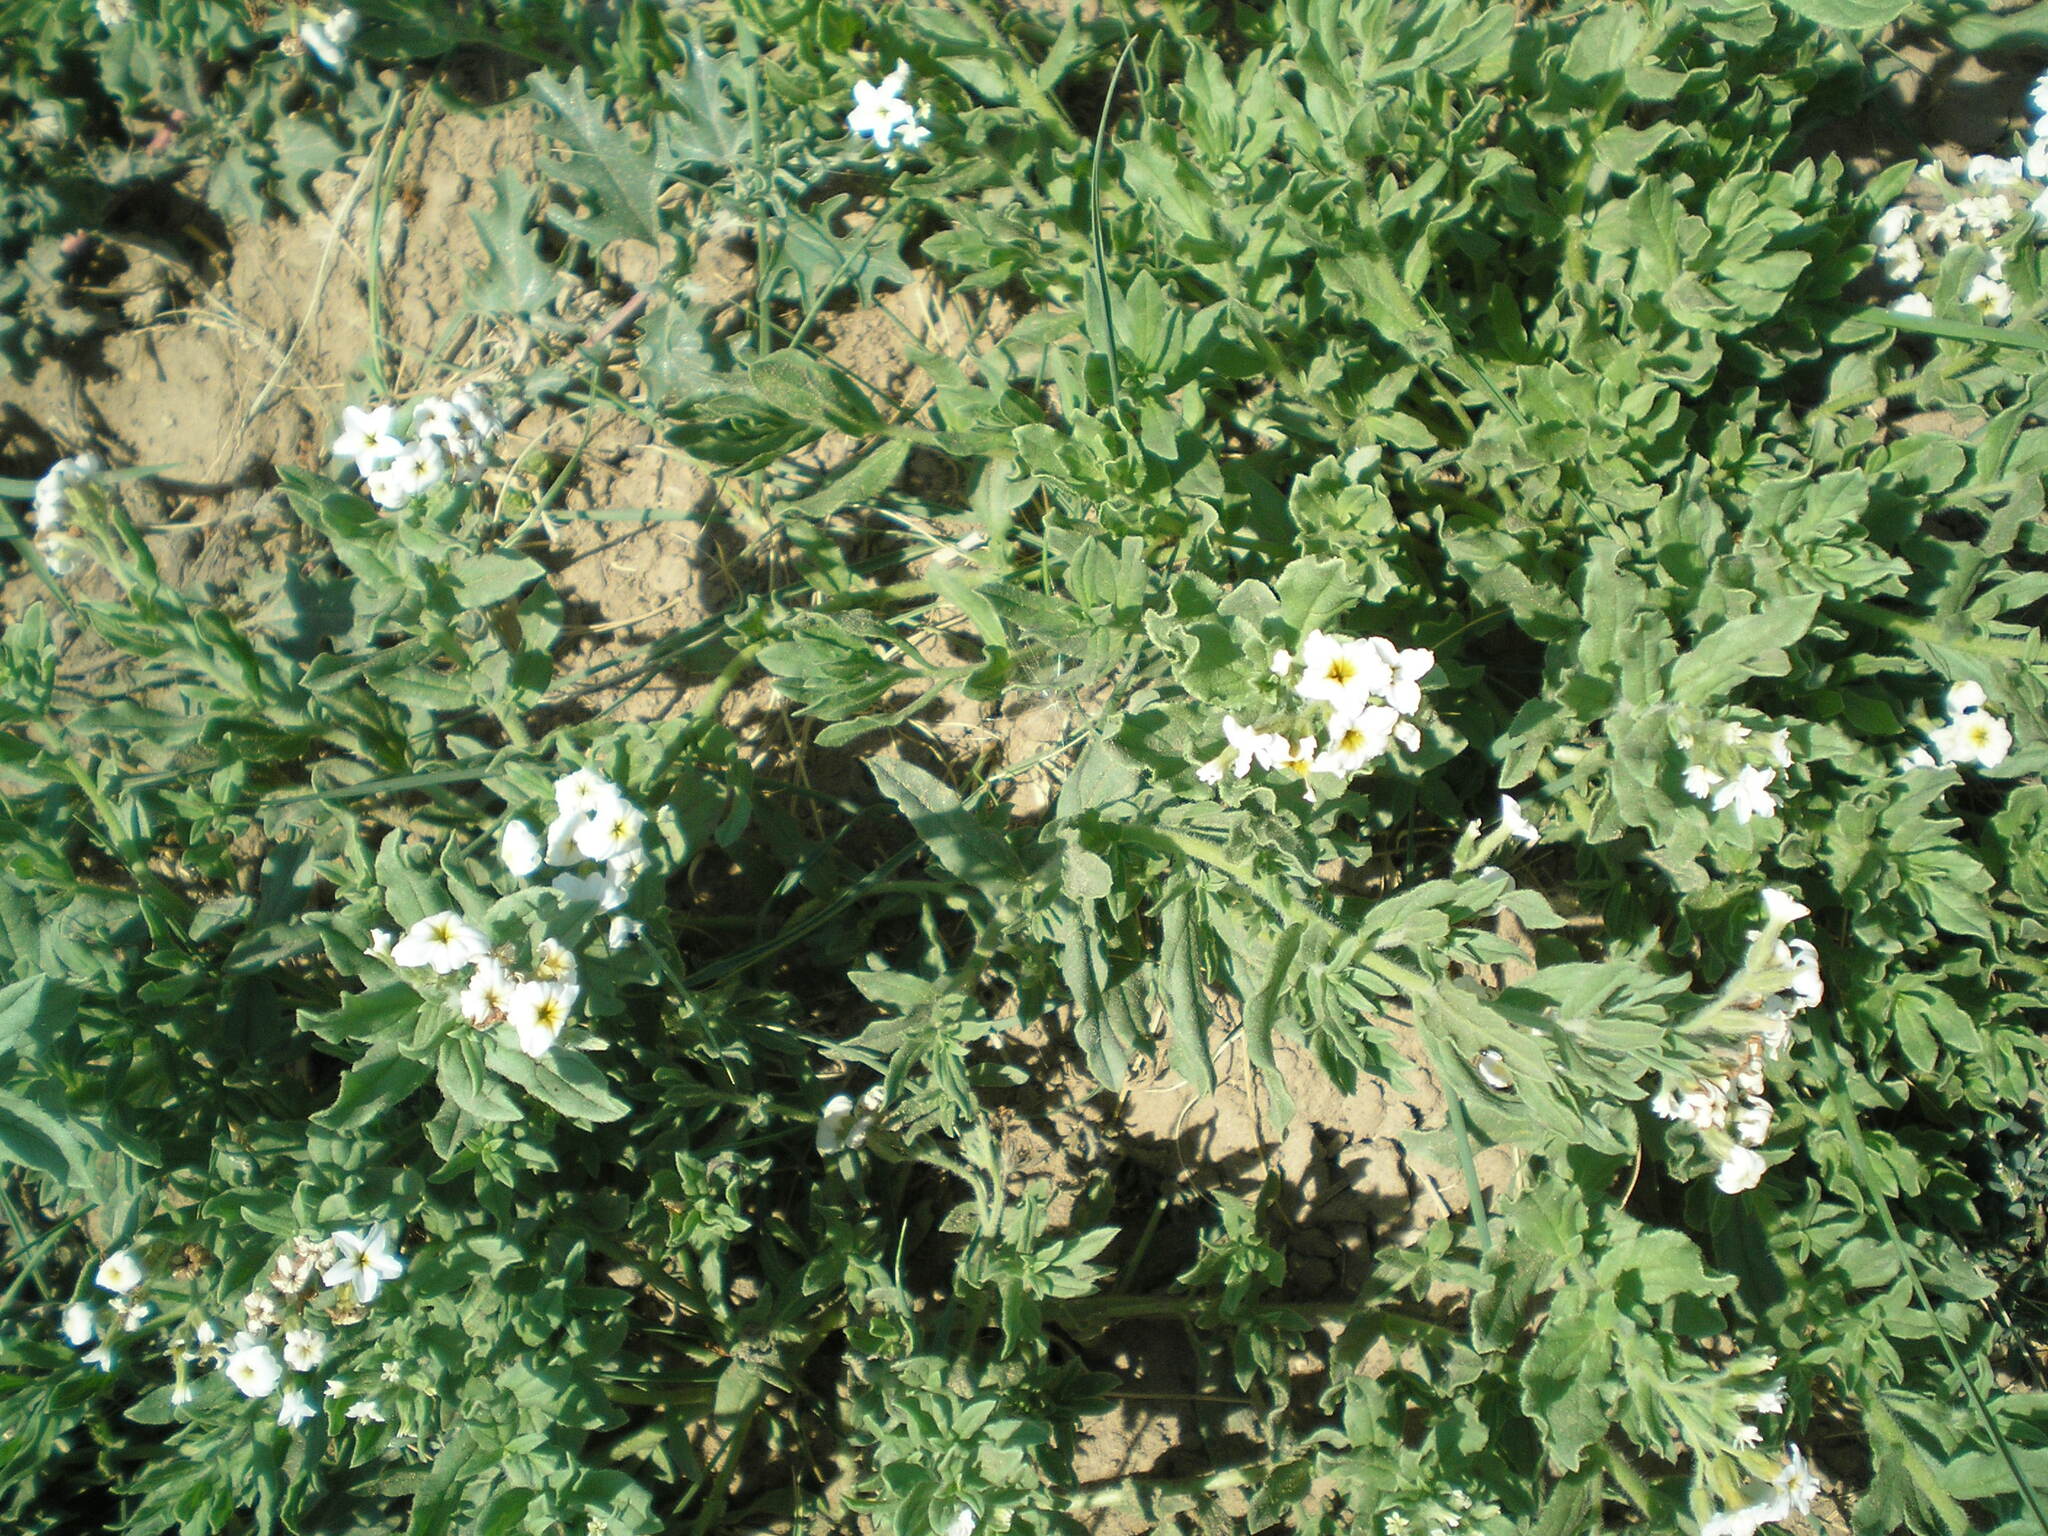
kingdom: Plantae
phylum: Tracheophyta
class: Magnoliopsida
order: Boraginales
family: Heliotropiaceae
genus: Tournefortia
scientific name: Tournefortia sibirica
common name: Siberian sea rosemary
